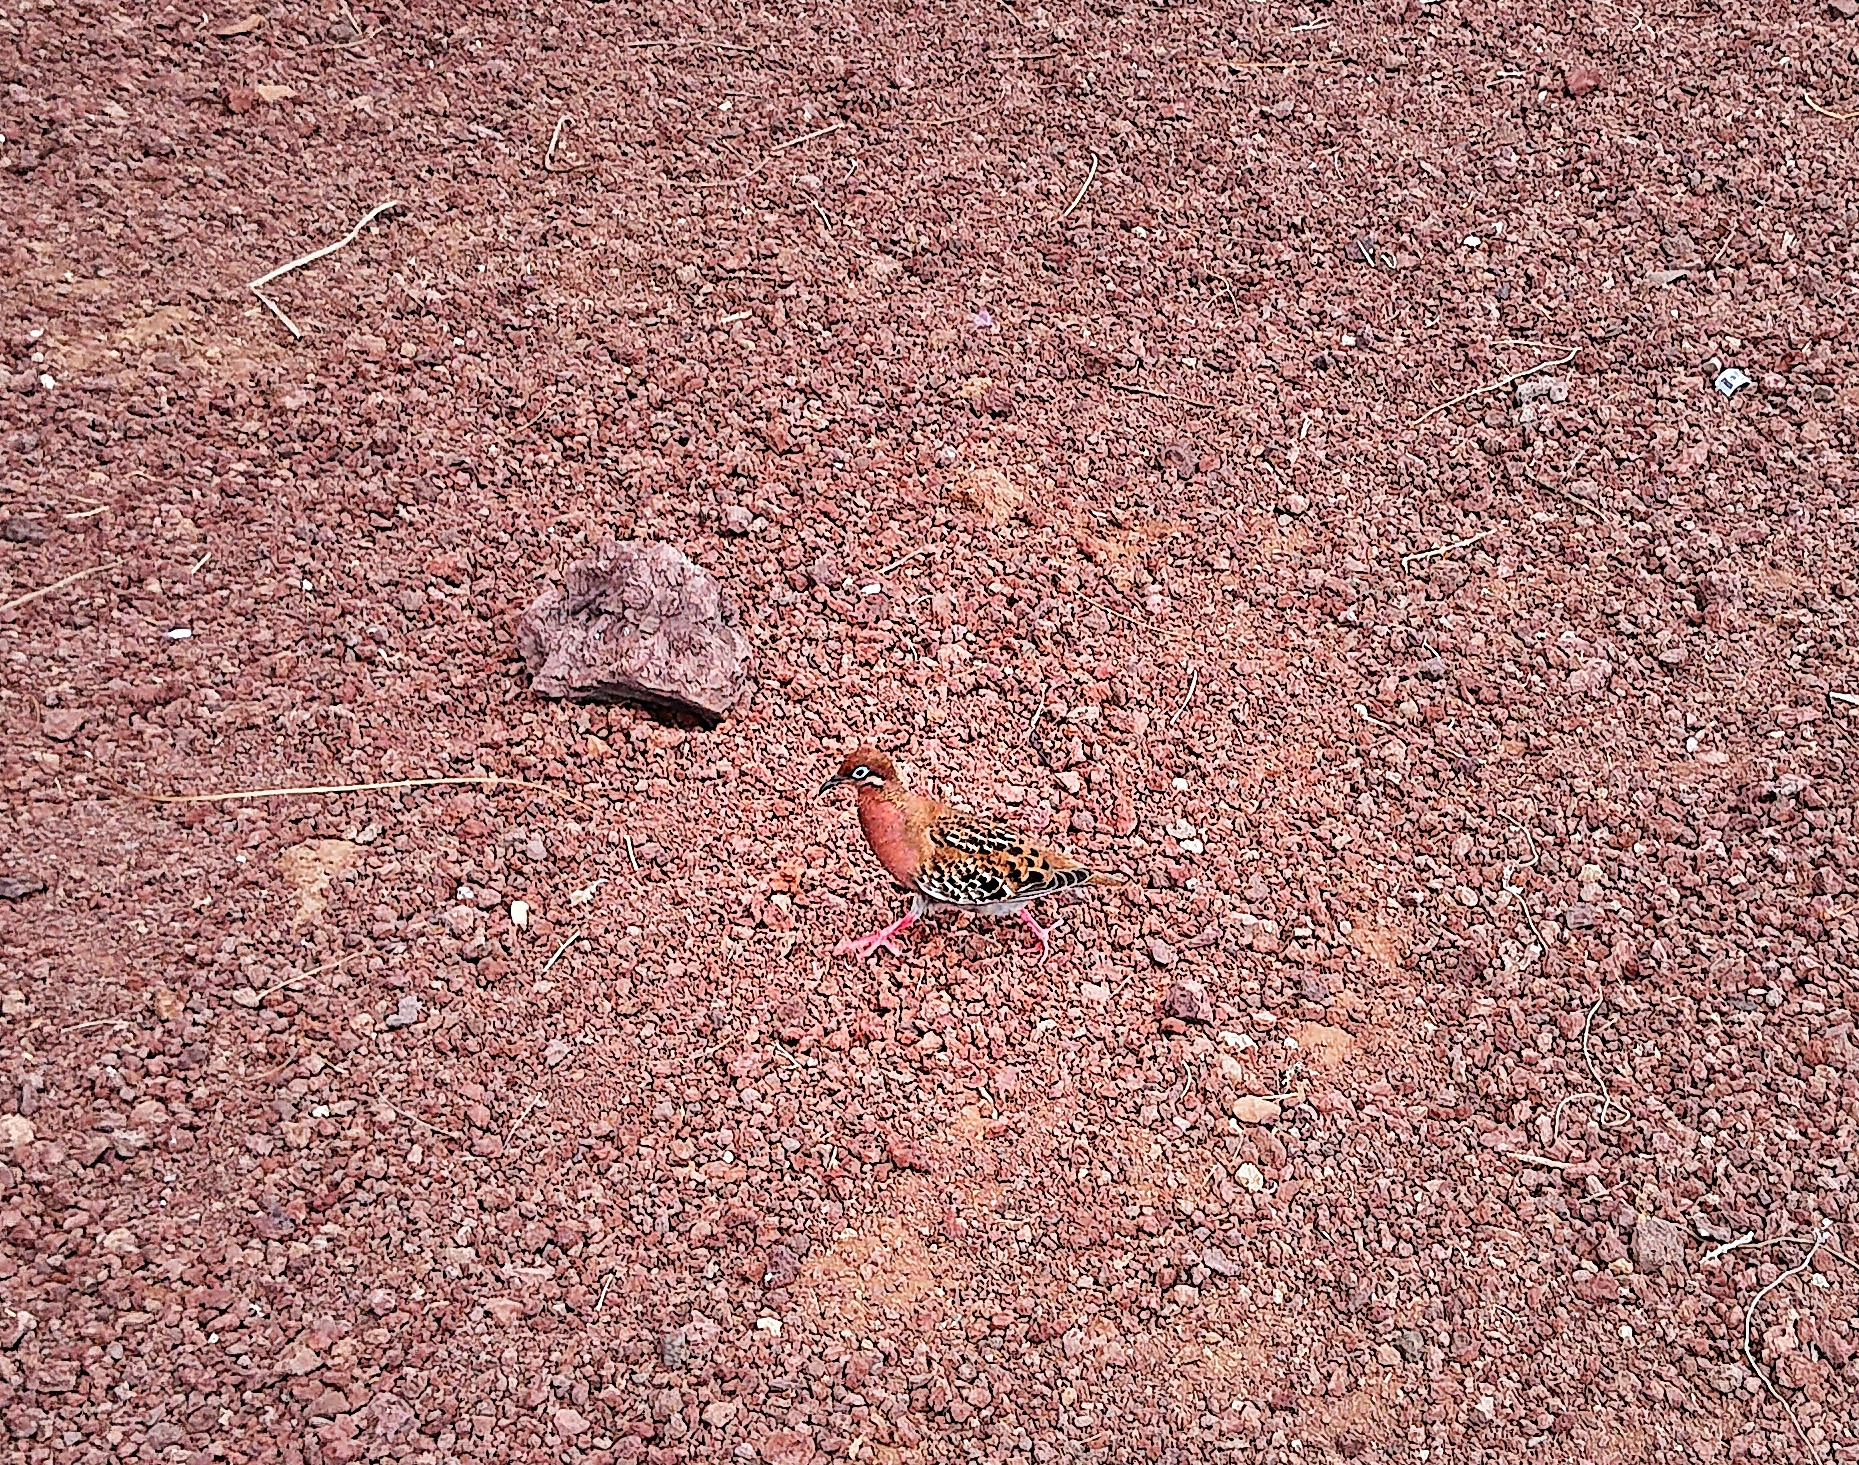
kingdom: Animalia
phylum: Chordata
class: Aves
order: Columbiformes
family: Columbidae
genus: Zenaida
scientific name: Zenaida galapagoensis
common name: Galapagos dove
